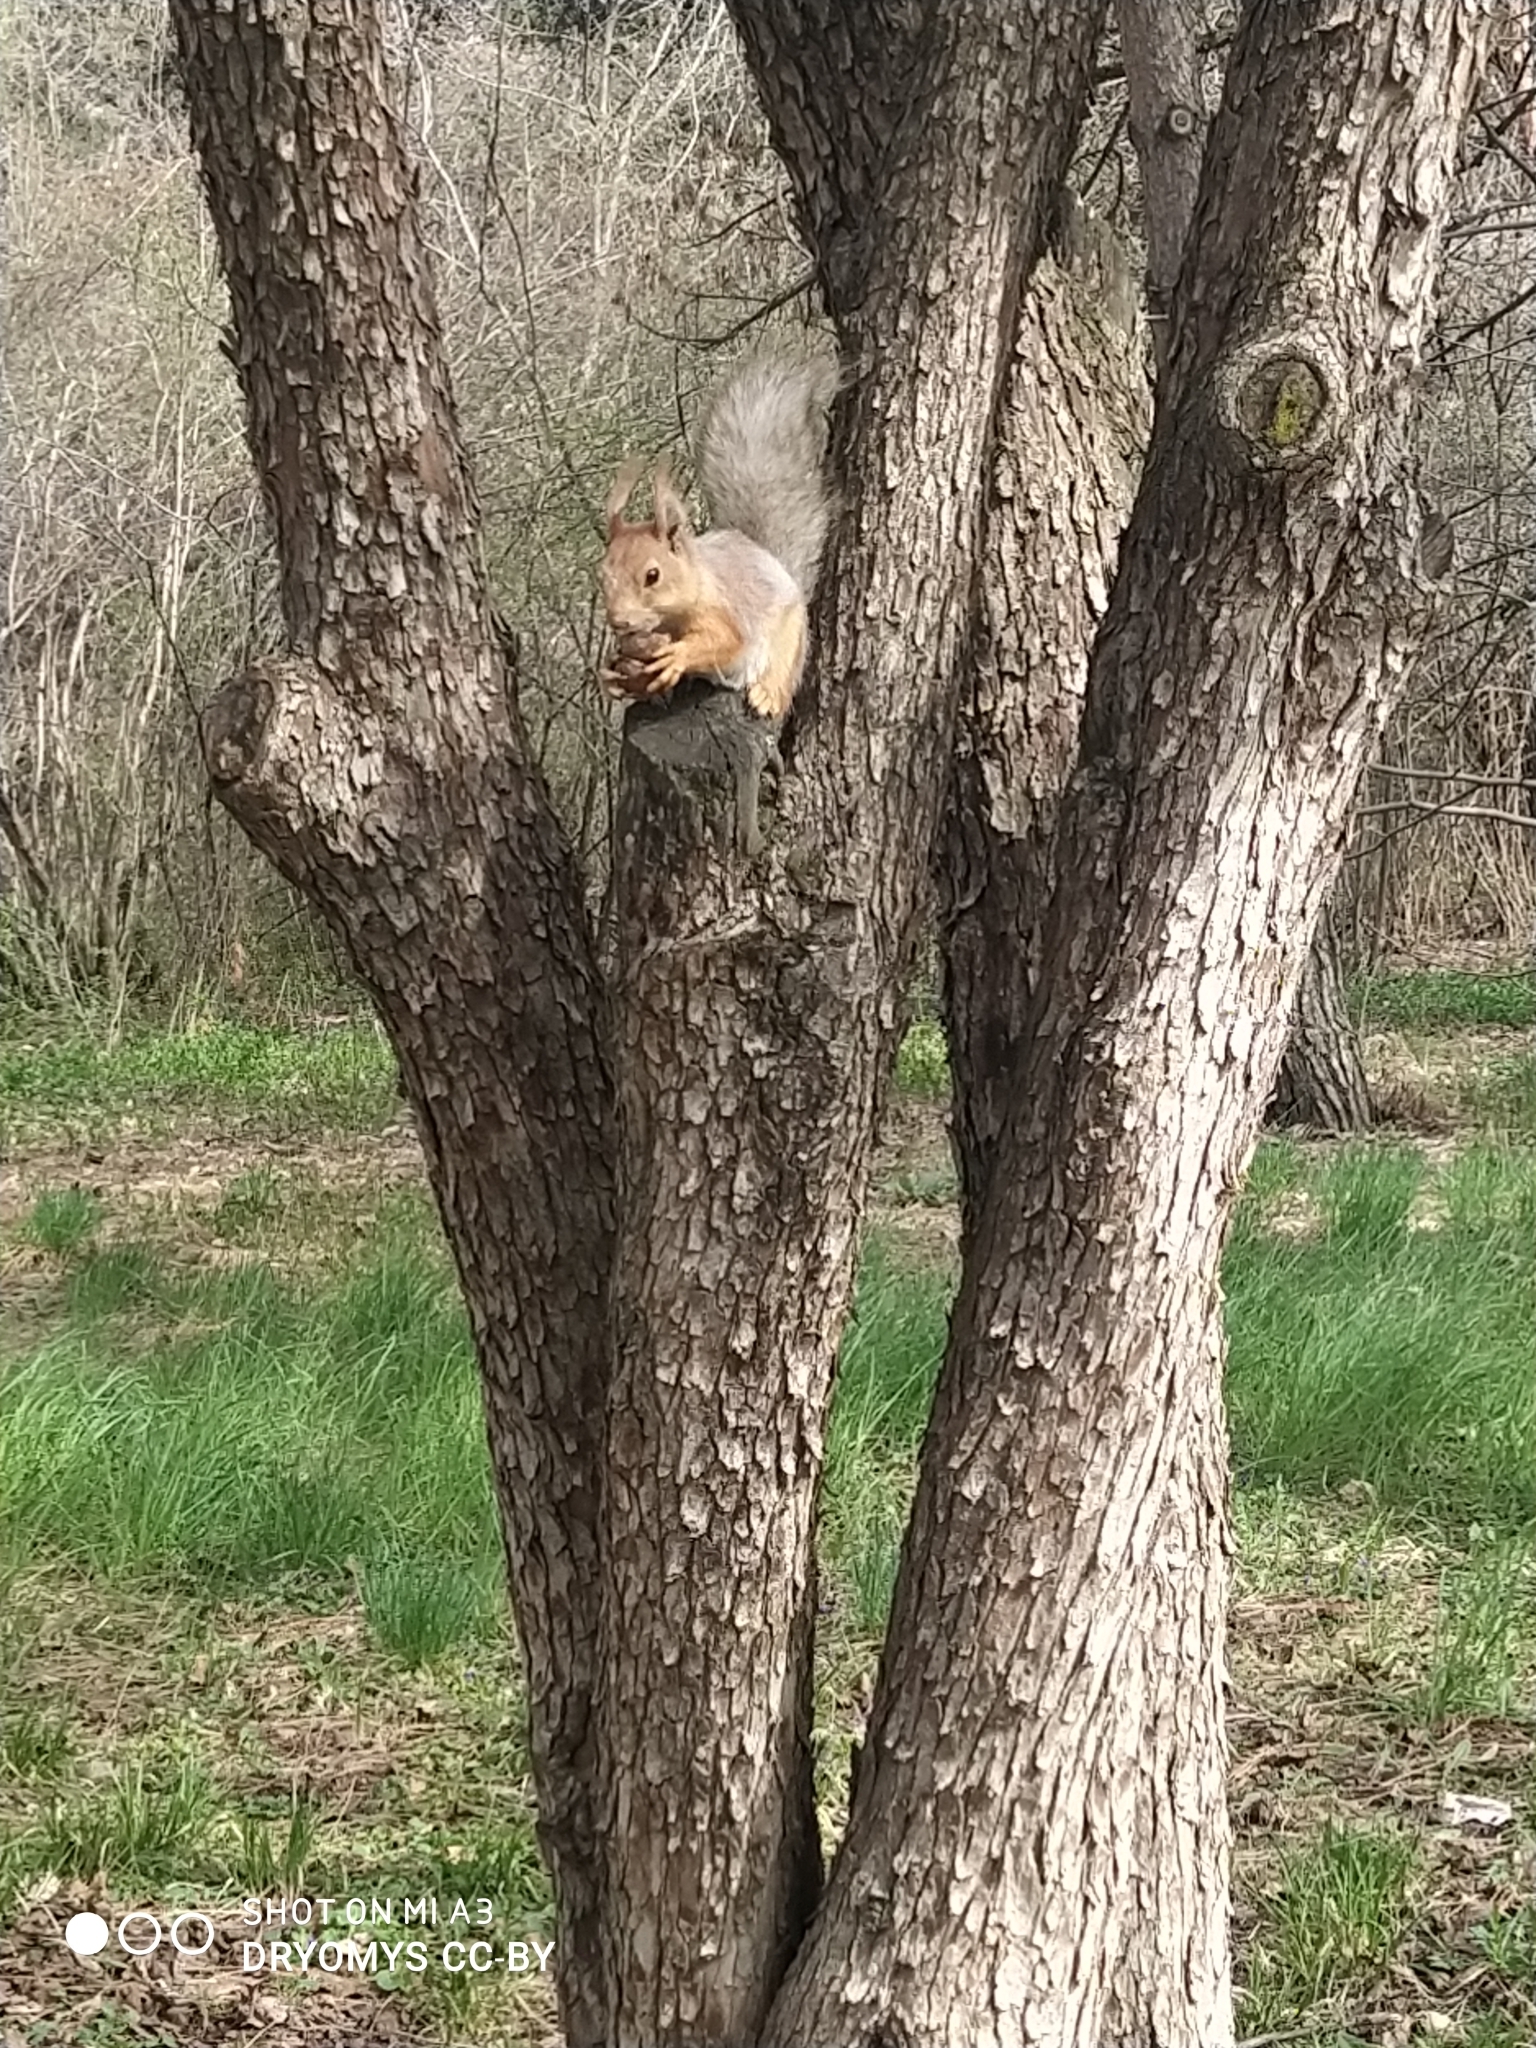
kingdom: Animalia
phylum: Chordata
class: Mammalia
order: Rodentia
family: Sciuridae
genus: Sciurus
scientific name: Sciurus vulgaris
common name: Eurasian red squirrel
